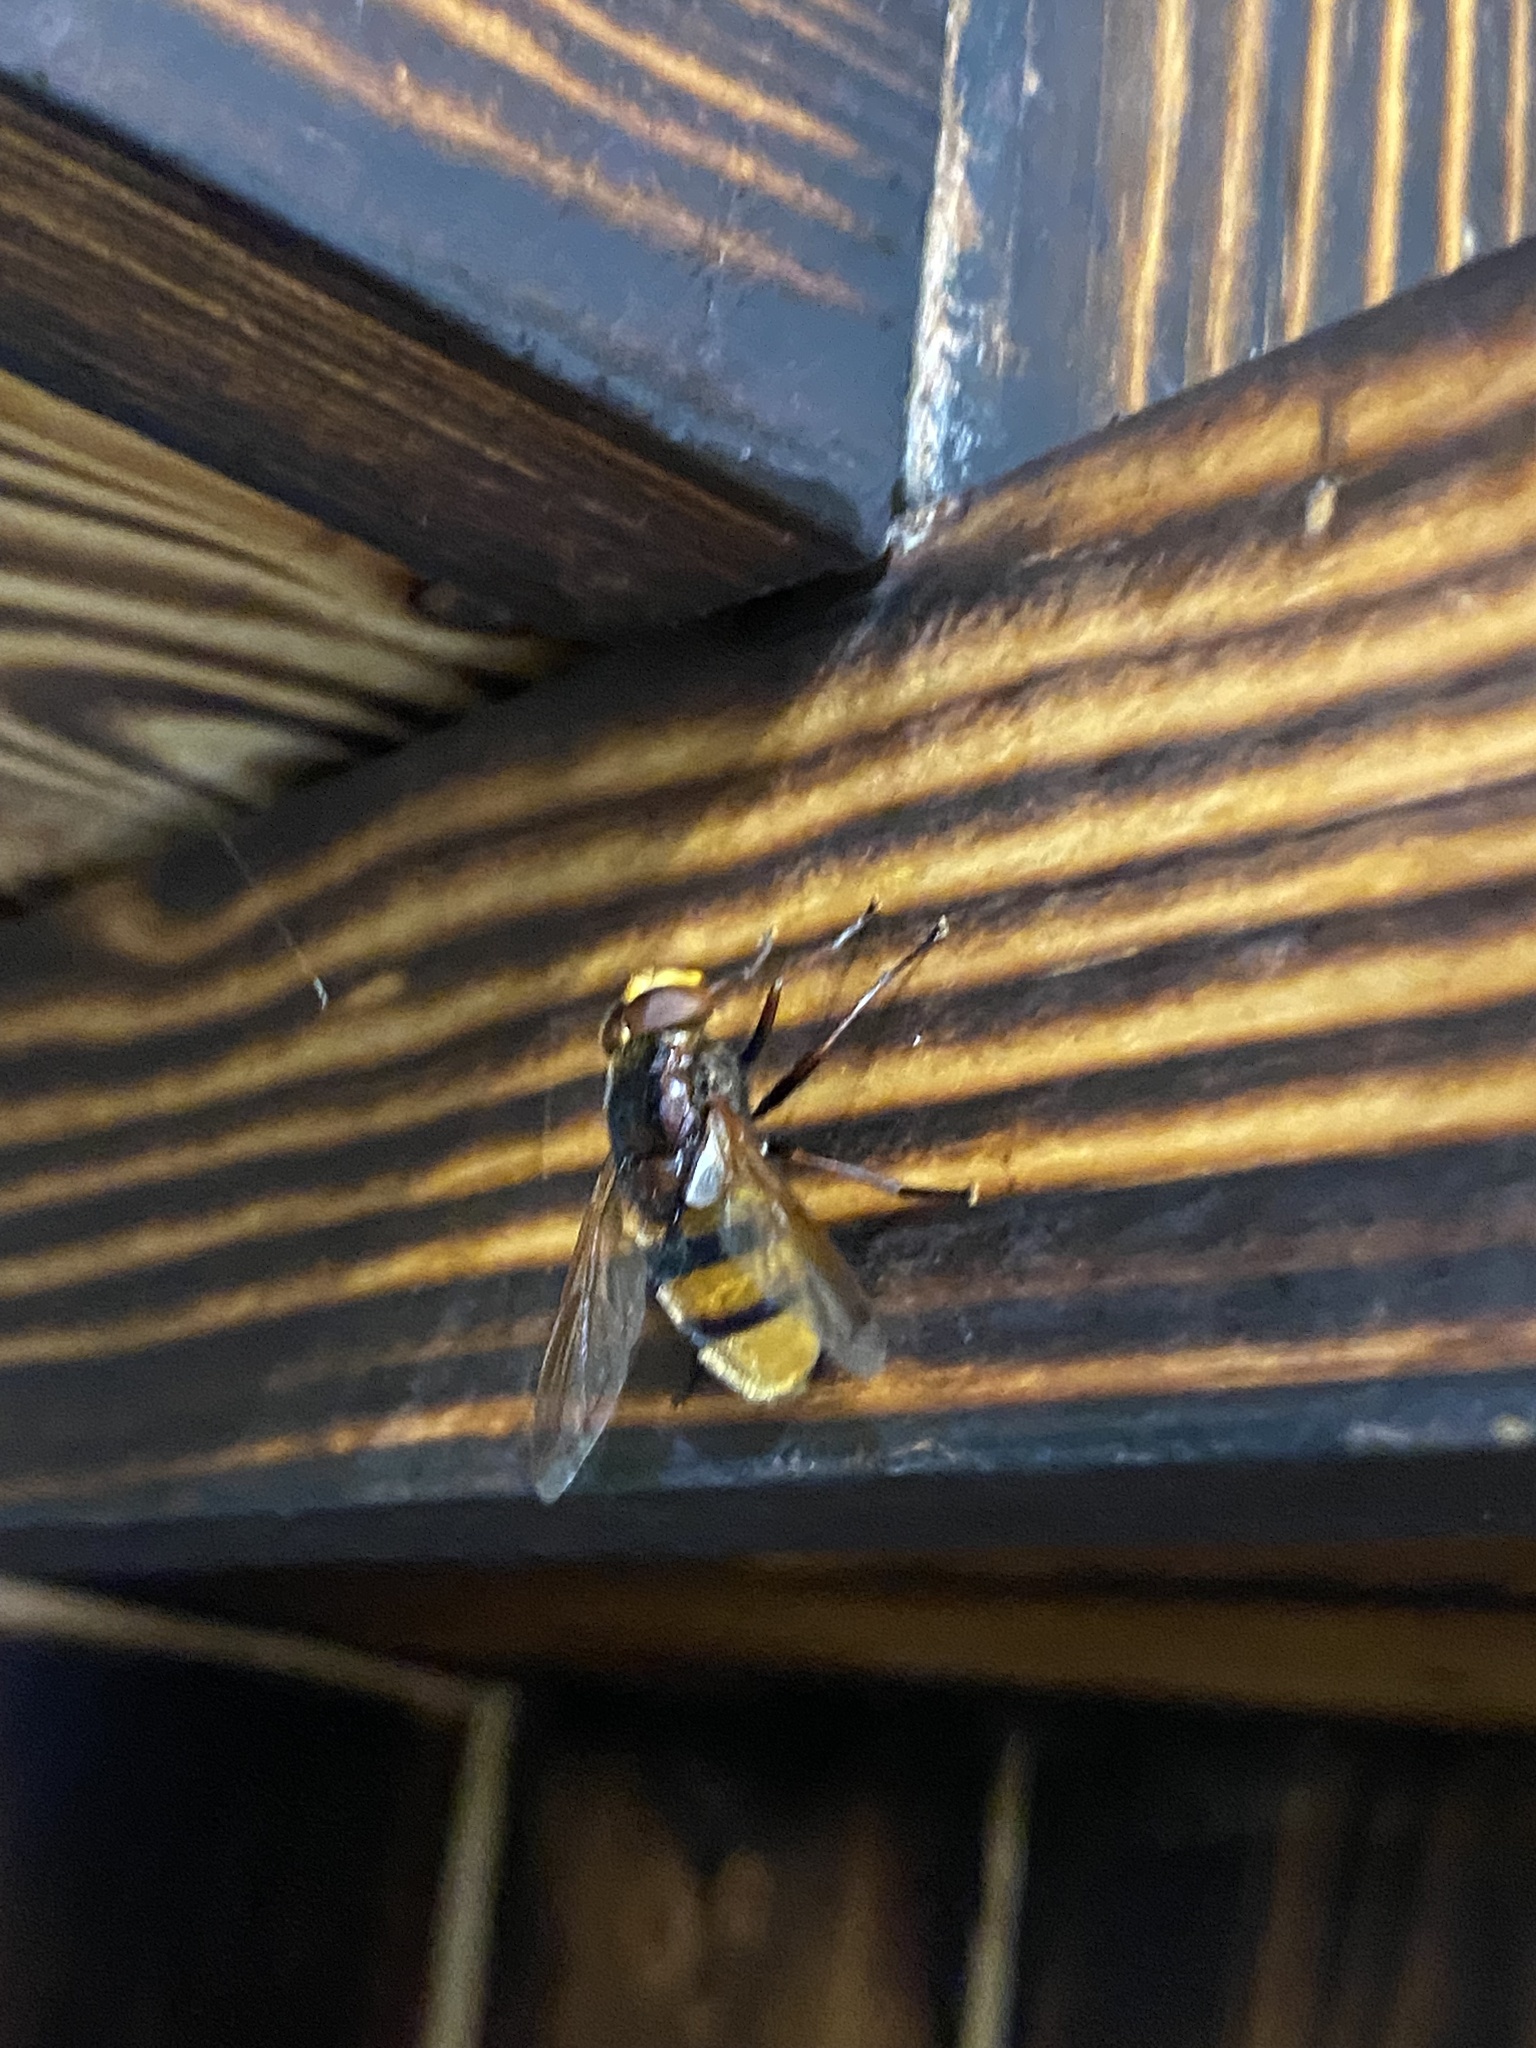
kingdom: Animalia
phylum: Arthropoda
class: Insecta
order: Diptera
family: Syrphidae
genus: Volucella
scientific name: Volucella zonaria
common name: Hornet hoverfly
